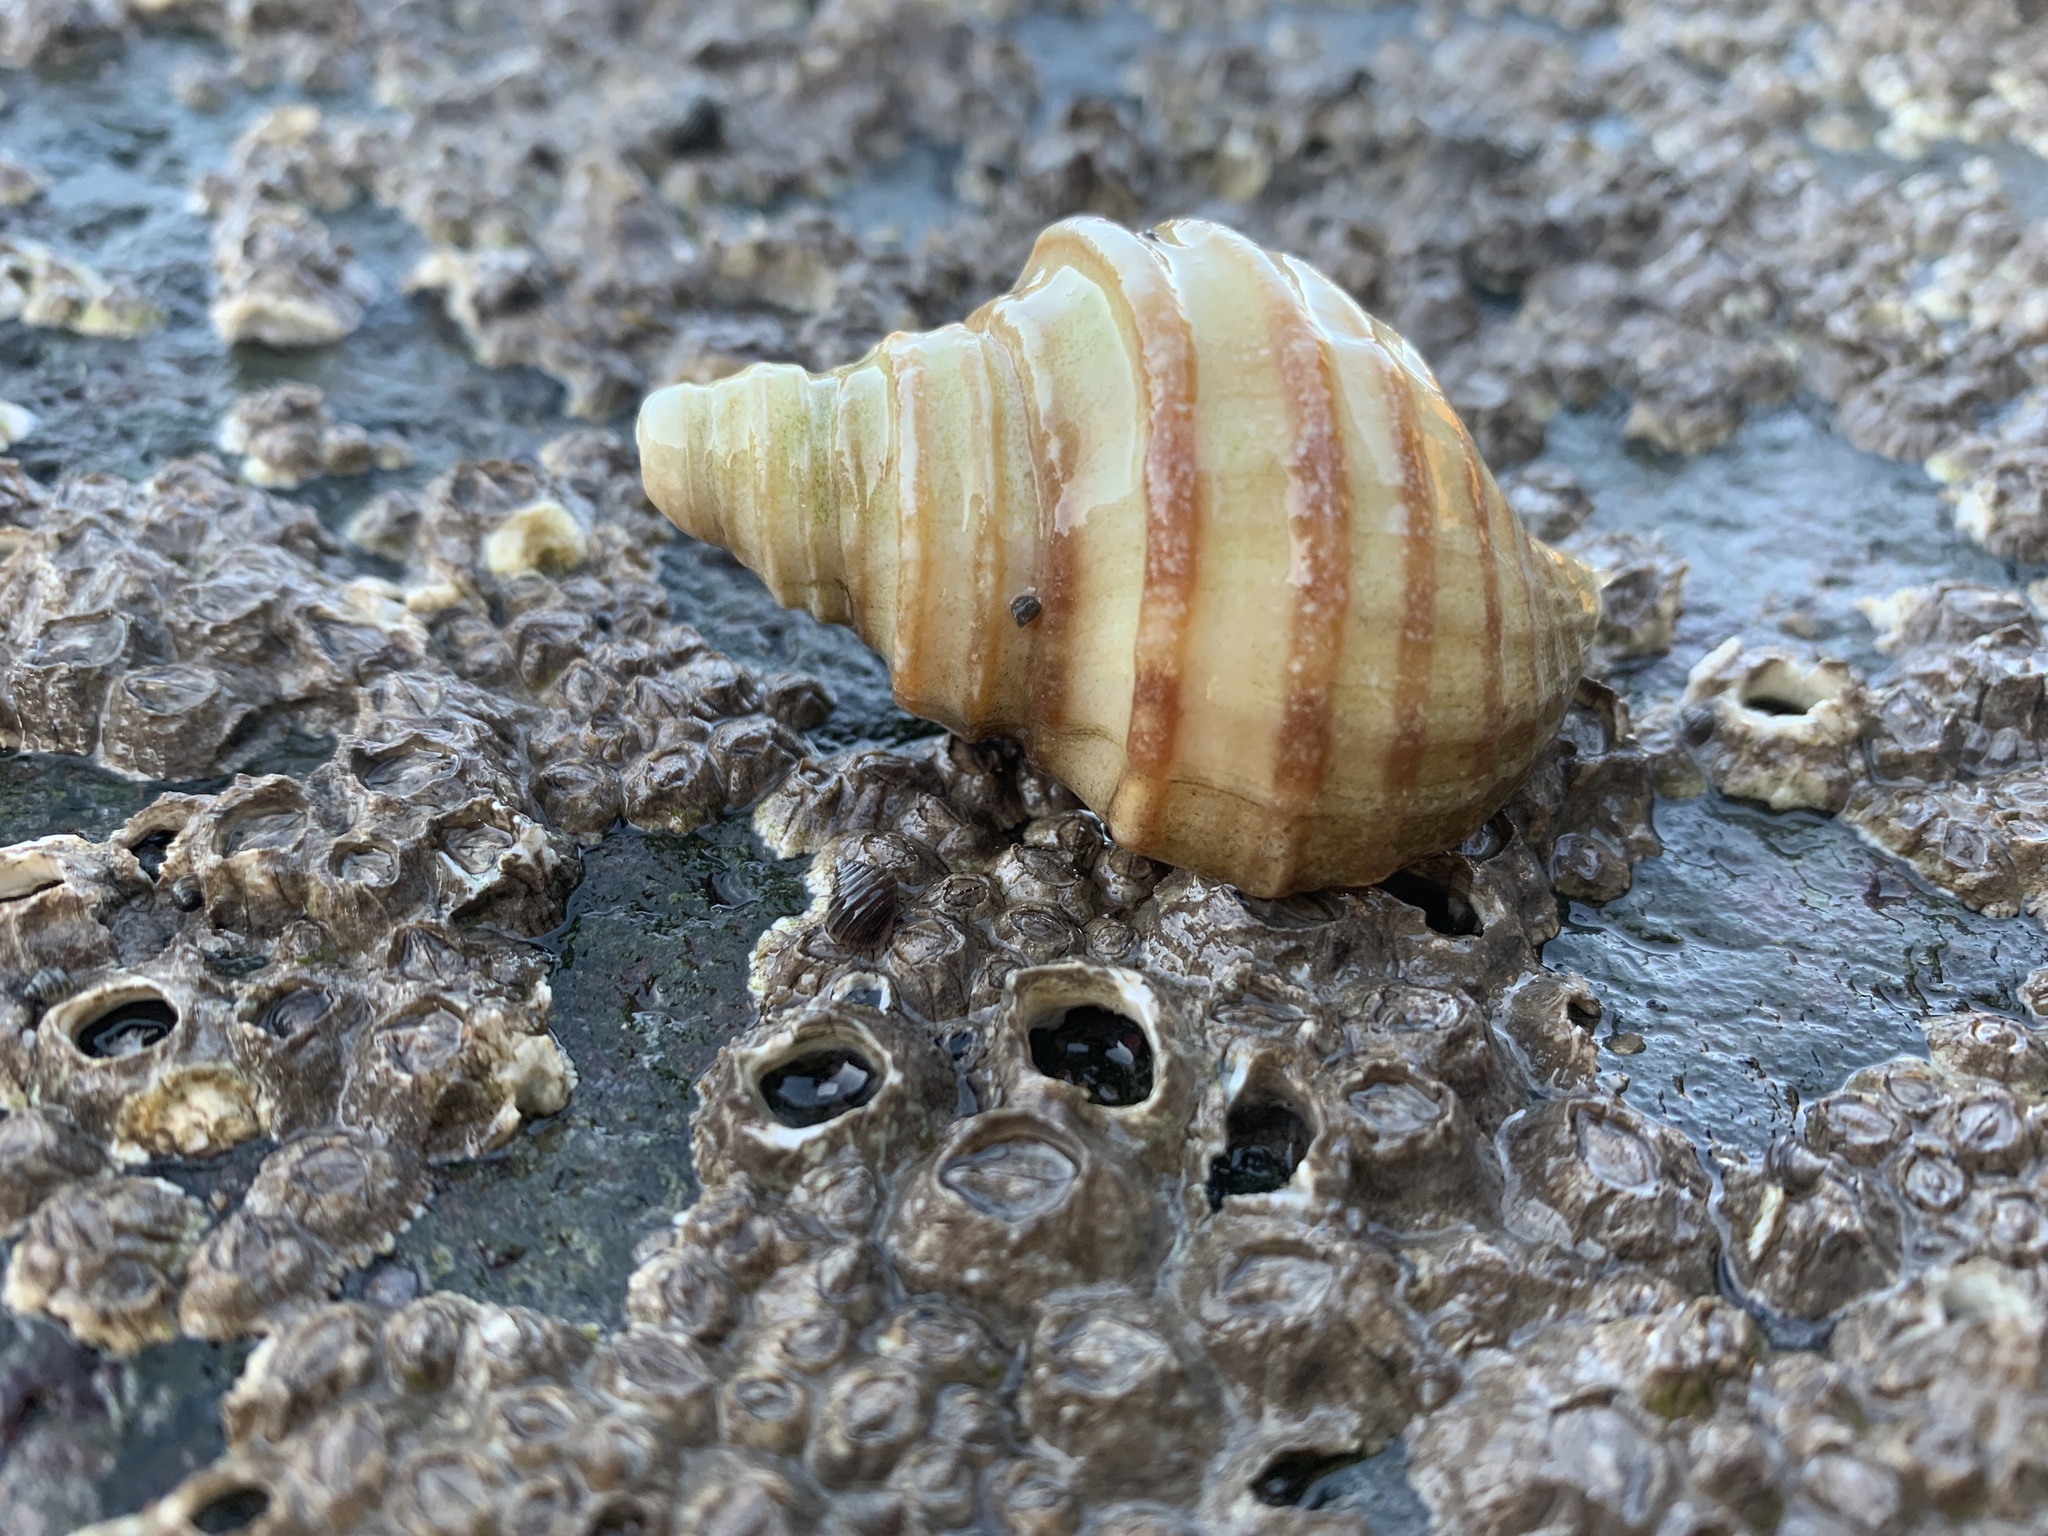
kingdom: Animalia
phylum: Mollusca
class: Gastropoda
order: Neogastropoda
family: Buccinidae
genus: Neptunea
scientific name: Neptunea decemcostata
